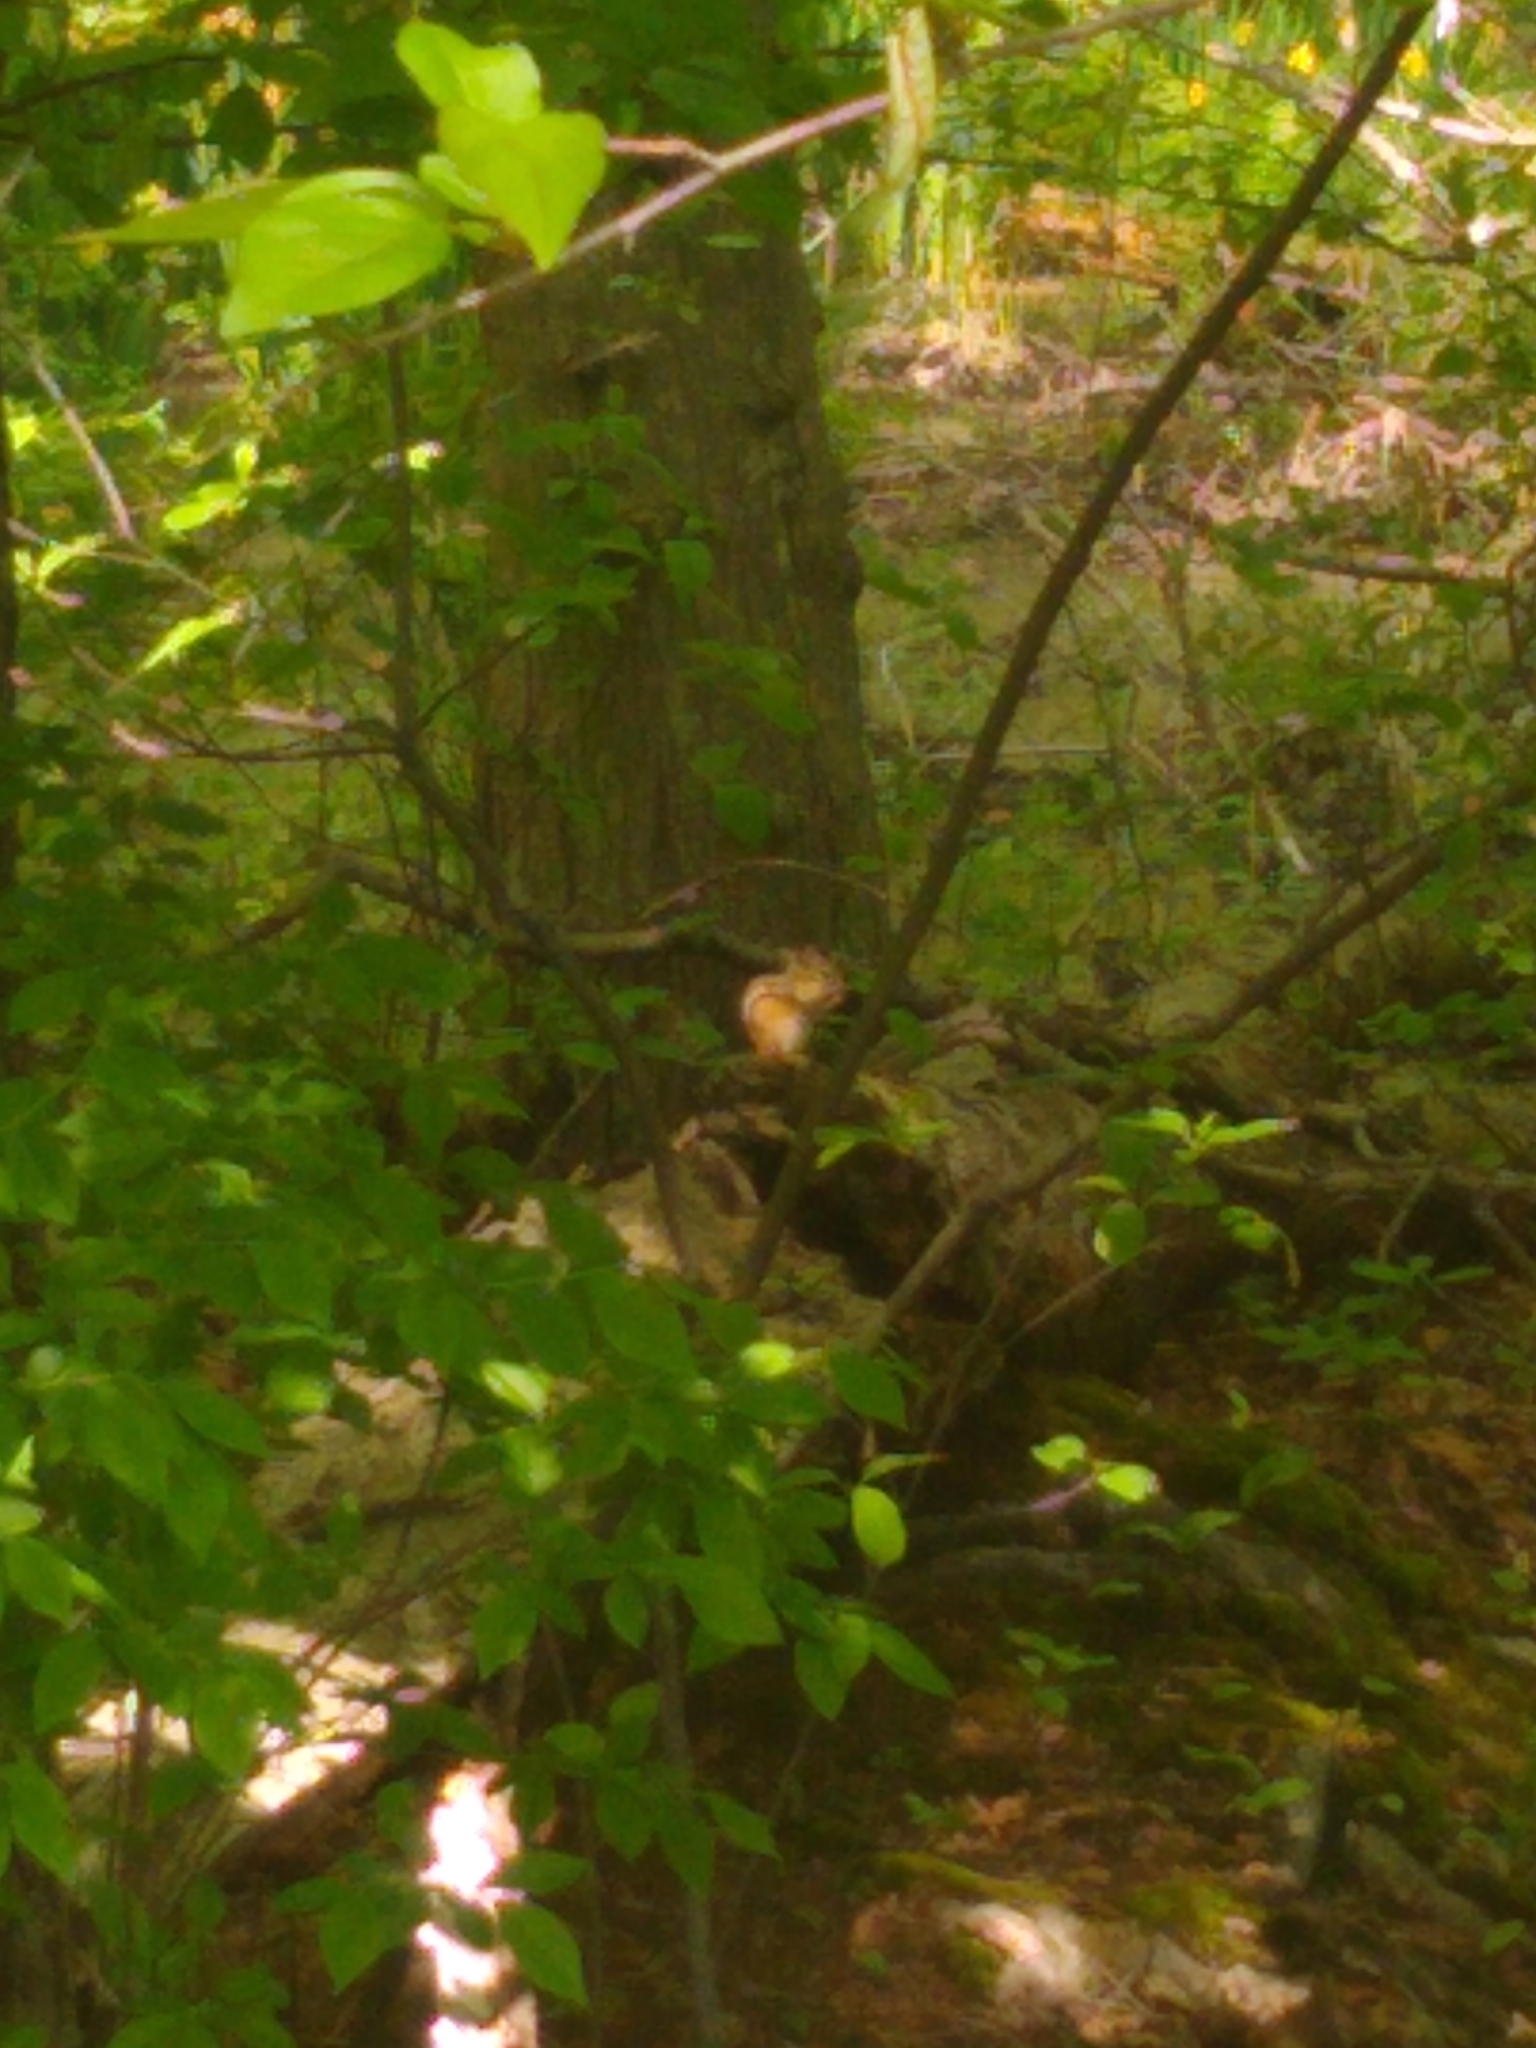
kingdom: Animalia
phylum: Chordata
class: Mammalia
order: Rodentia
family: Sciuridae
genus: Tamias
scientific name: Tamias striatus
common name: Eastern chipmunk
